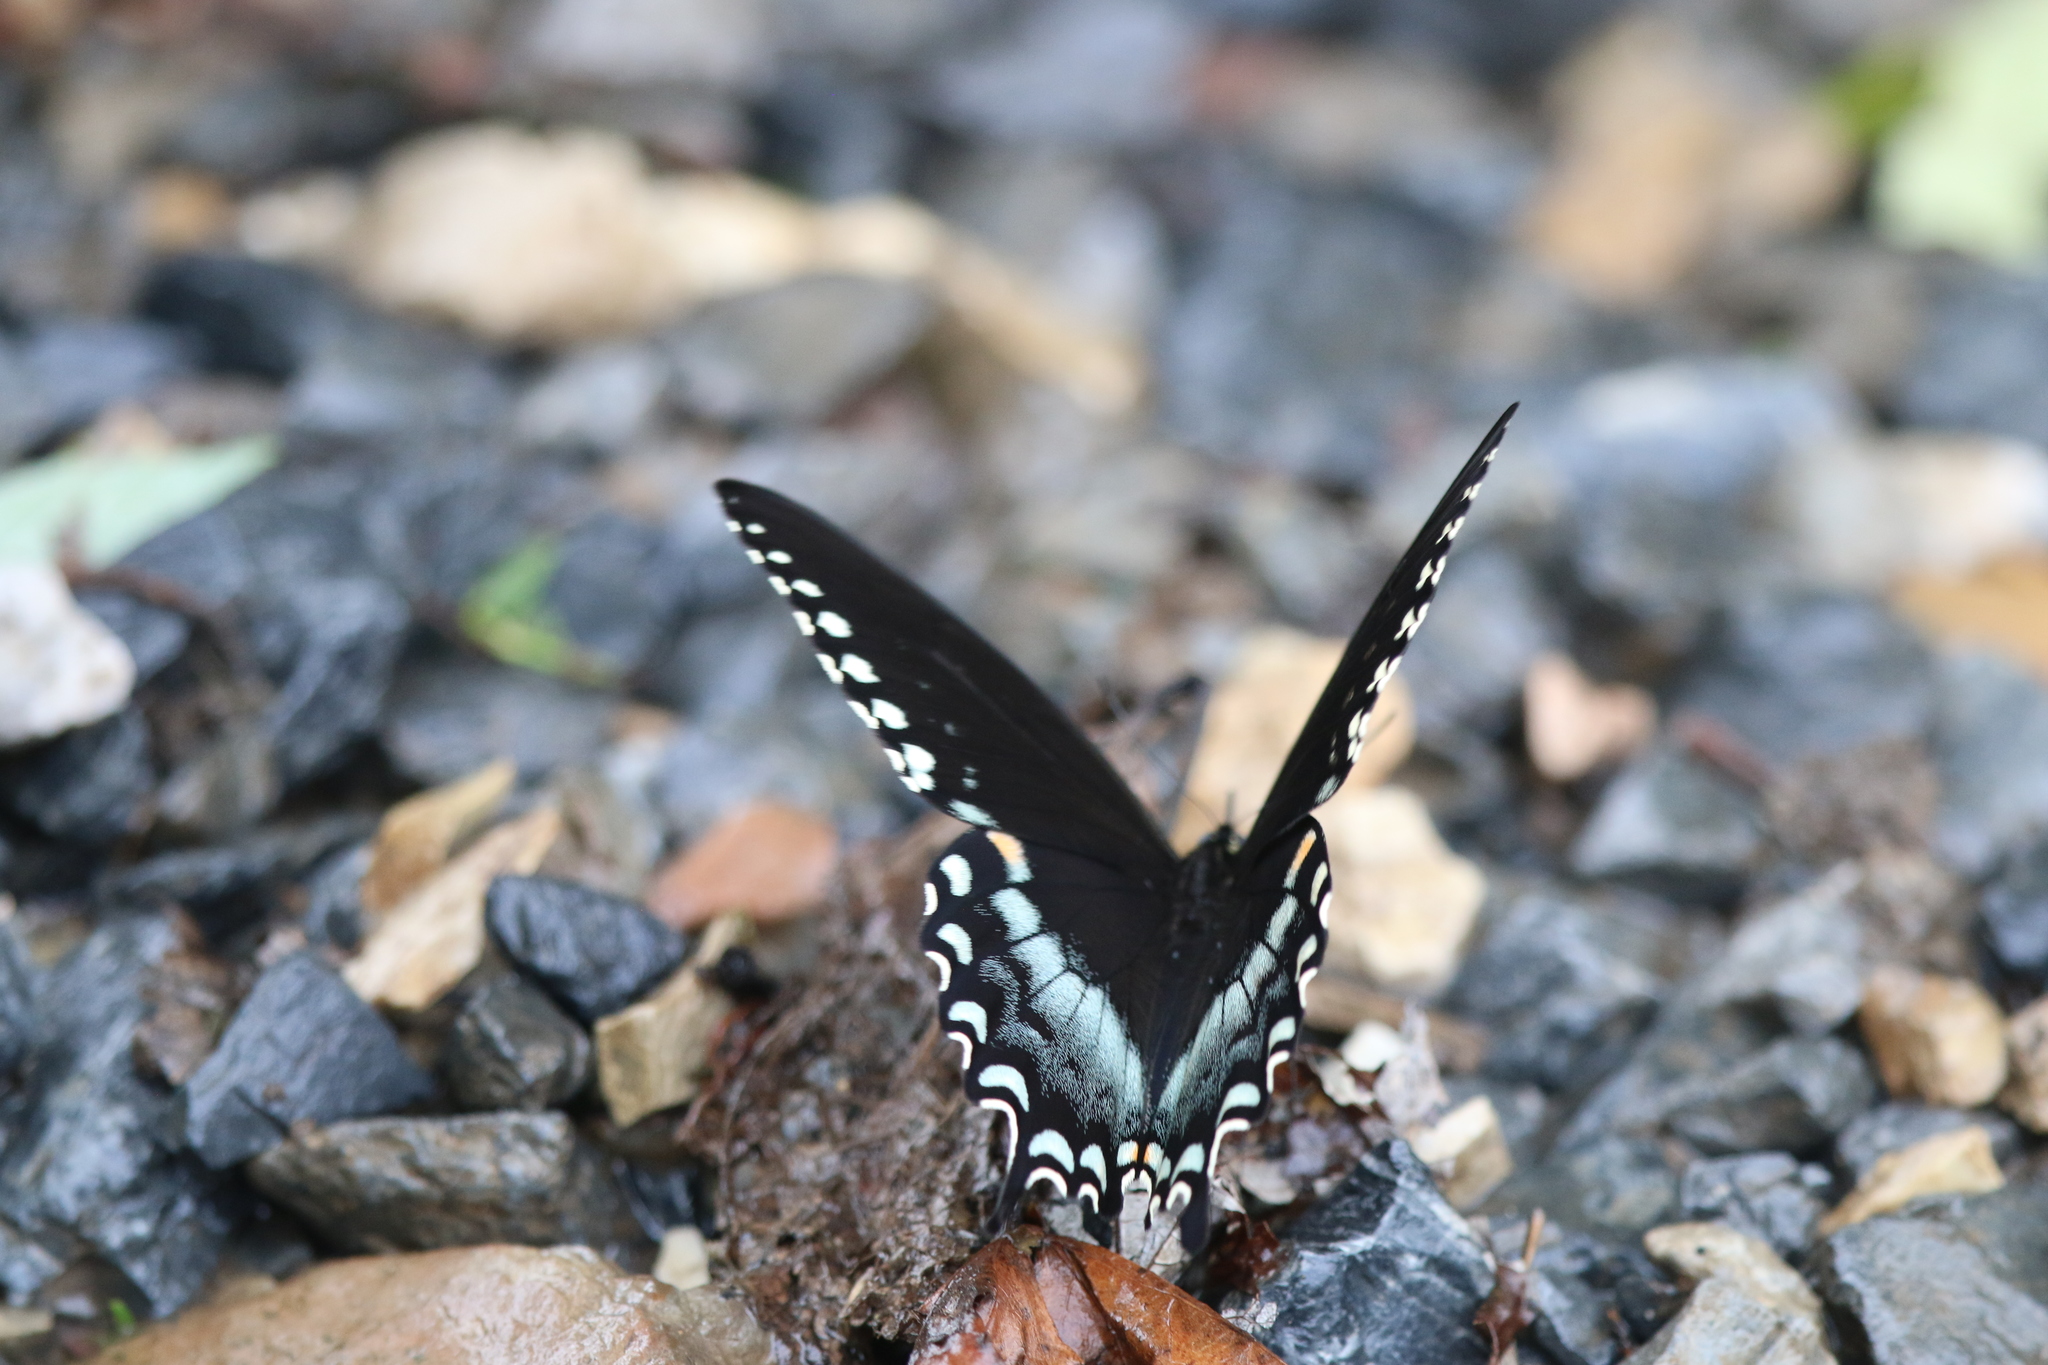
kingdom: Animalia
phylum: Arthropoda
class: Insecta
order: Lepidoptera
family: Papilionidae
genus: Papilio
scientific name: Papilio troilus
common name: Spicebush swallowtail
